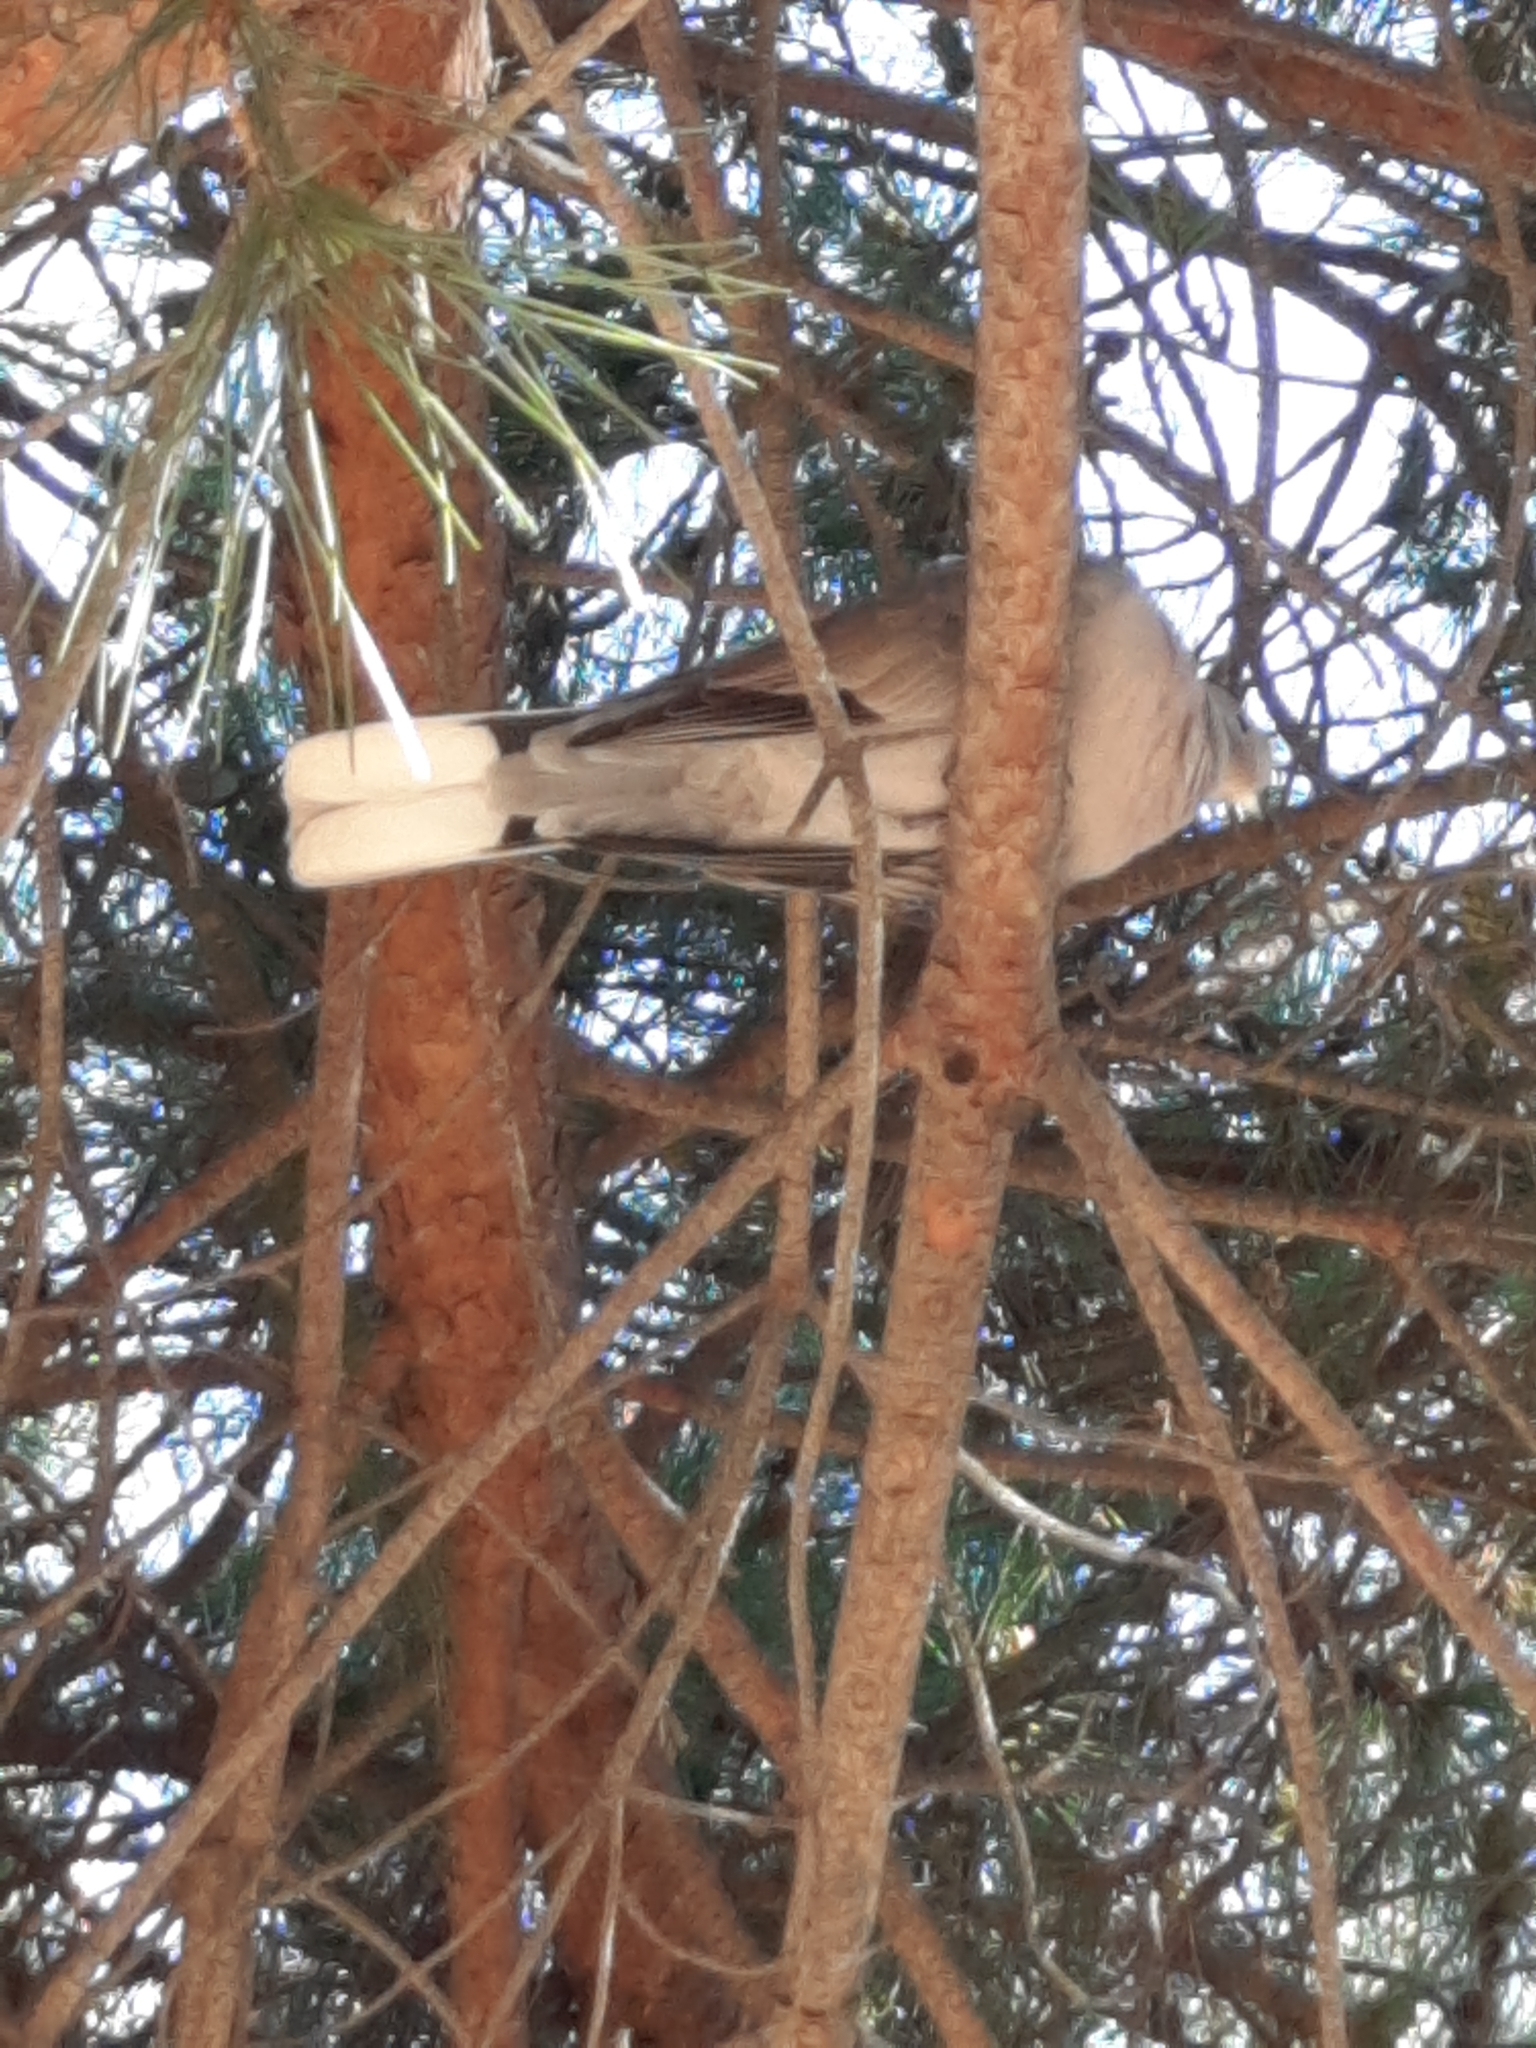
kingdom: Animalia
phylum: Chordata
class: Aves
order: Columbiformes
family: Columbidae
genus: Streptopelia
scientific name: Streptopelia decaocto
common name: Eurasian collared dove
